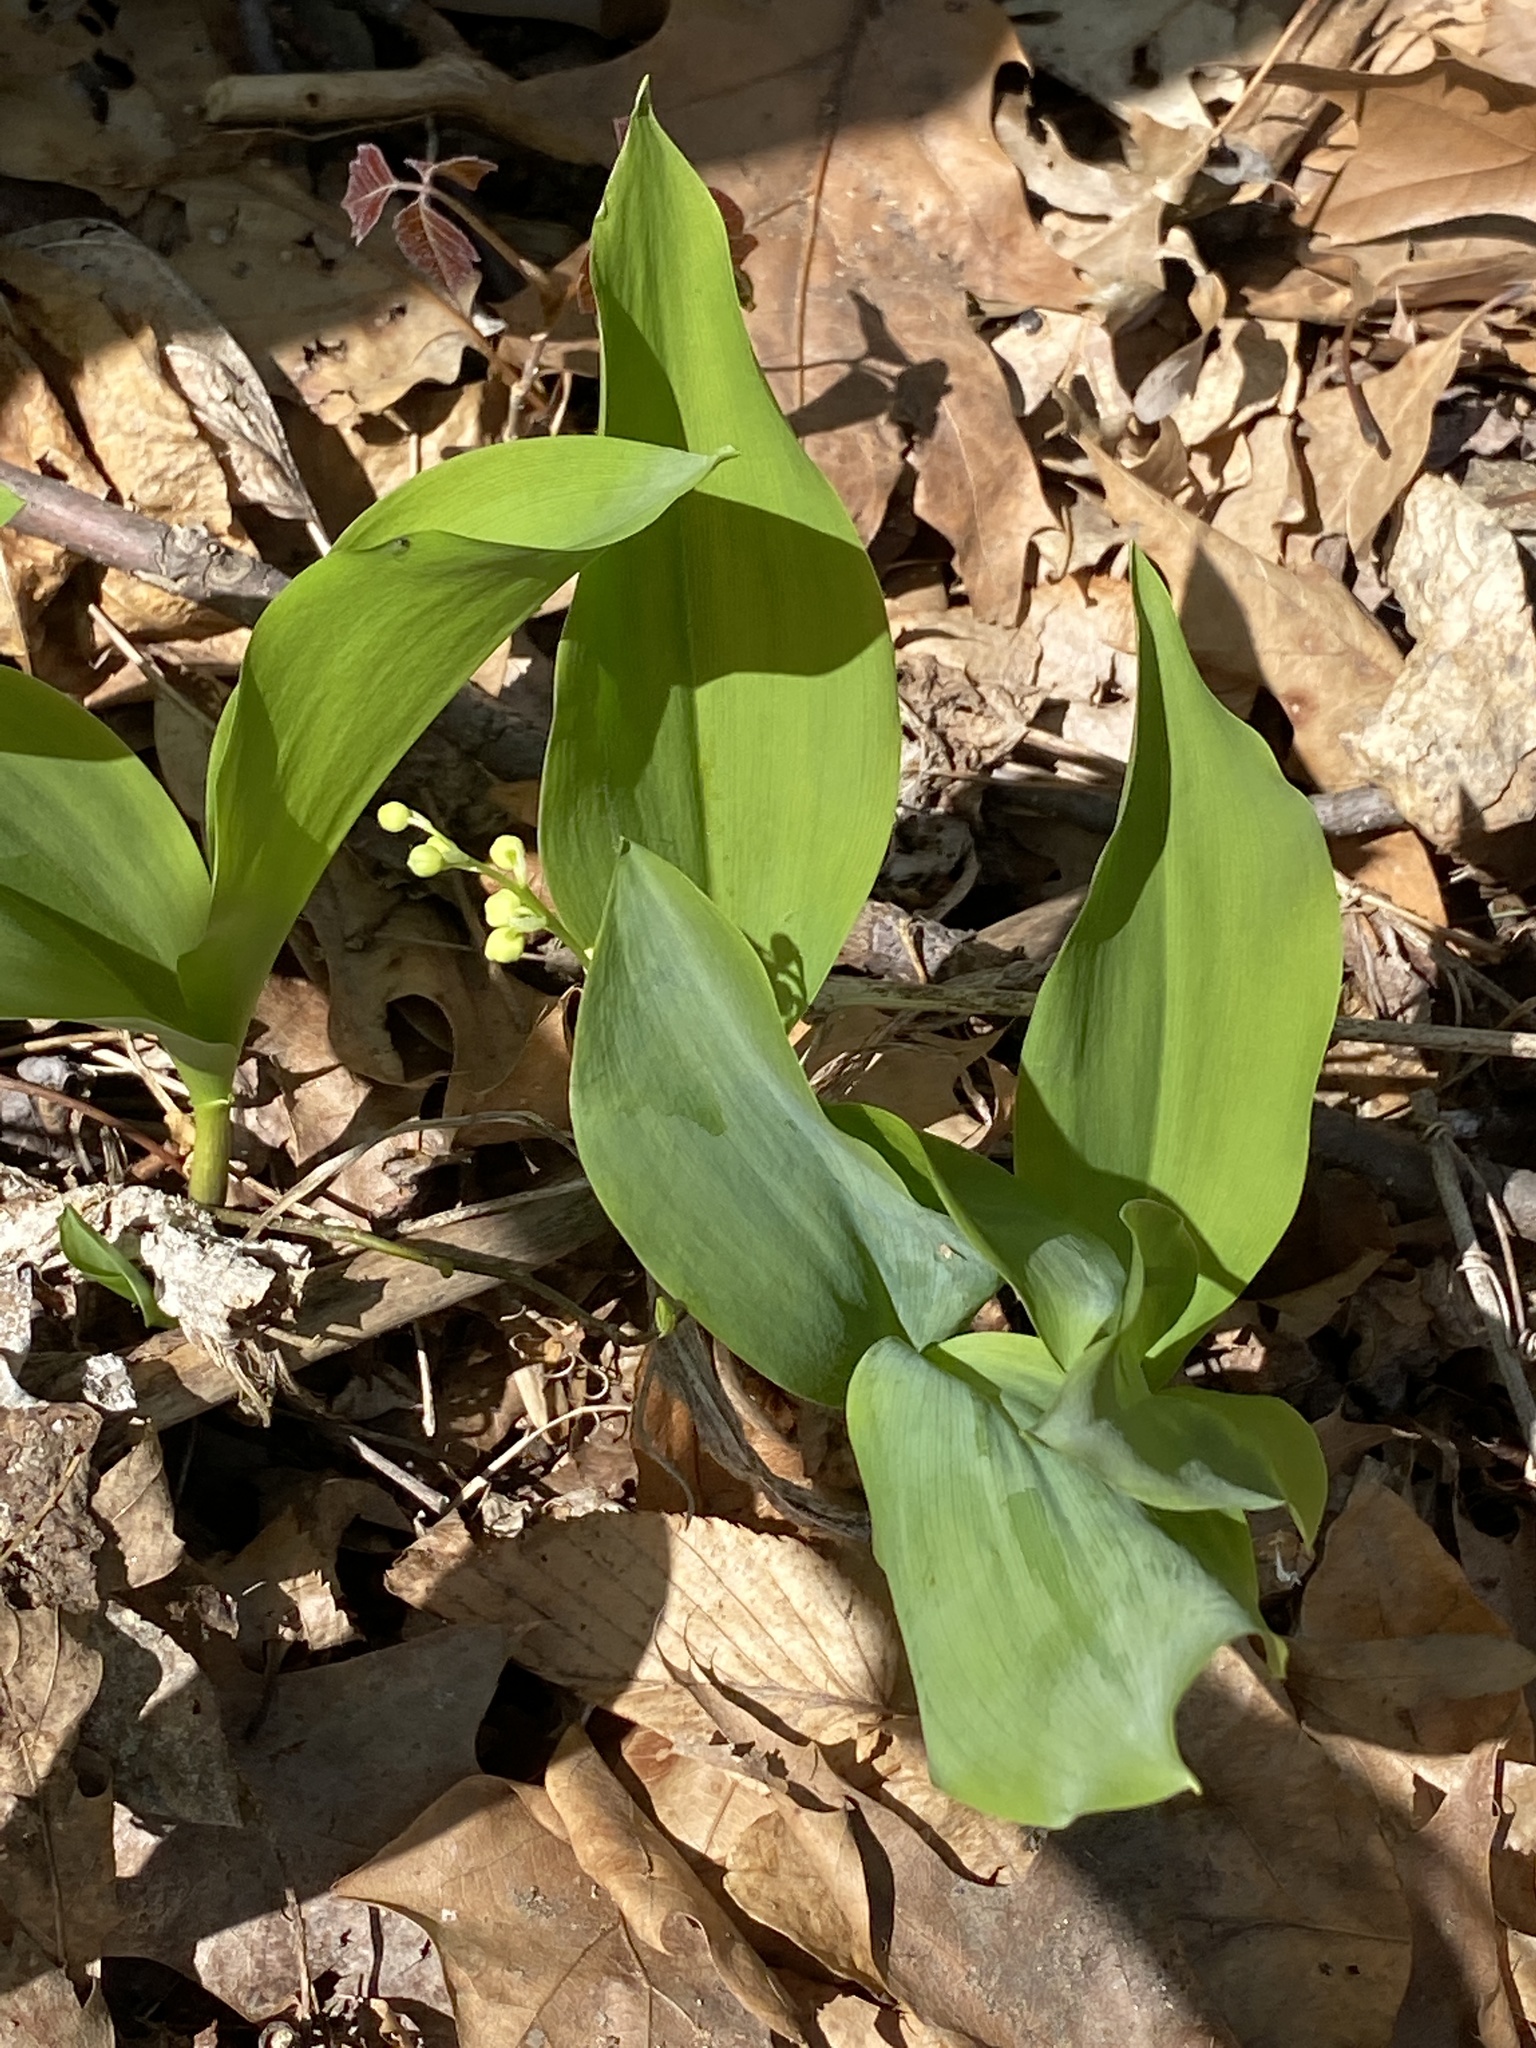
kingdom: Plantae
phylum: Tracheophyta
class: Liliopsida
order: Asparagales
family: Asparagaceae
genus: Convallaria
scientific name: Convallaria majalis
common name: Lily-of-the-valley
